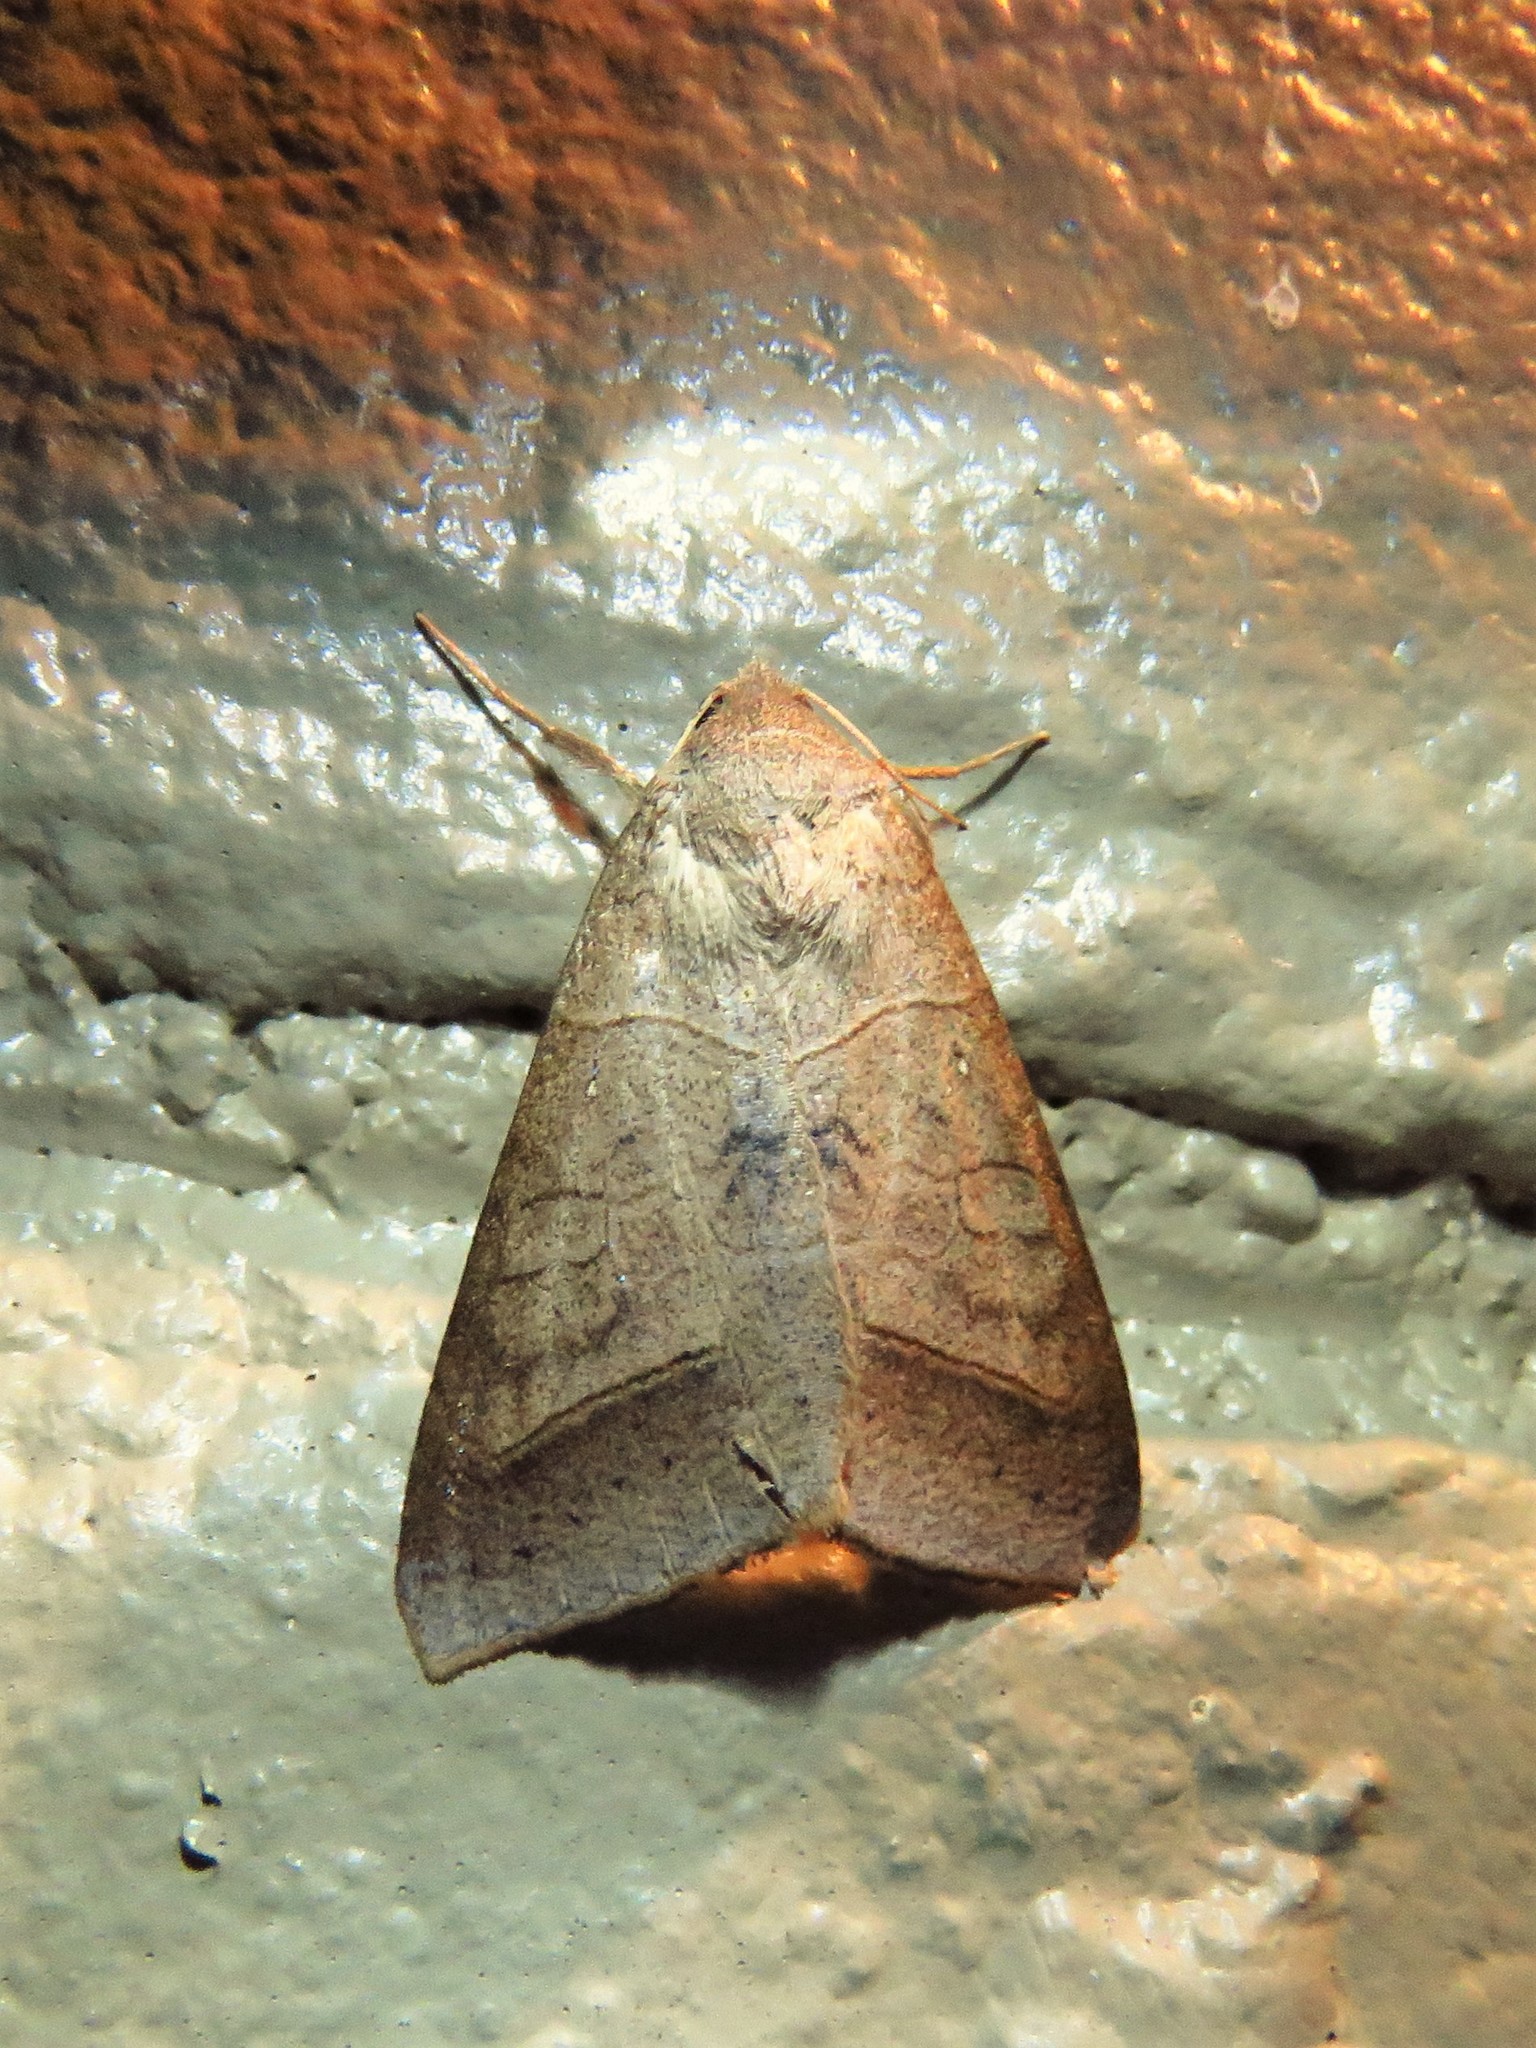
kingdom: Animalia
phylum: Arthropoda
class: Insecta
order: Lepidoptera
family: Erebidae
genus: Mocis
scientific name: Mocis marcida
